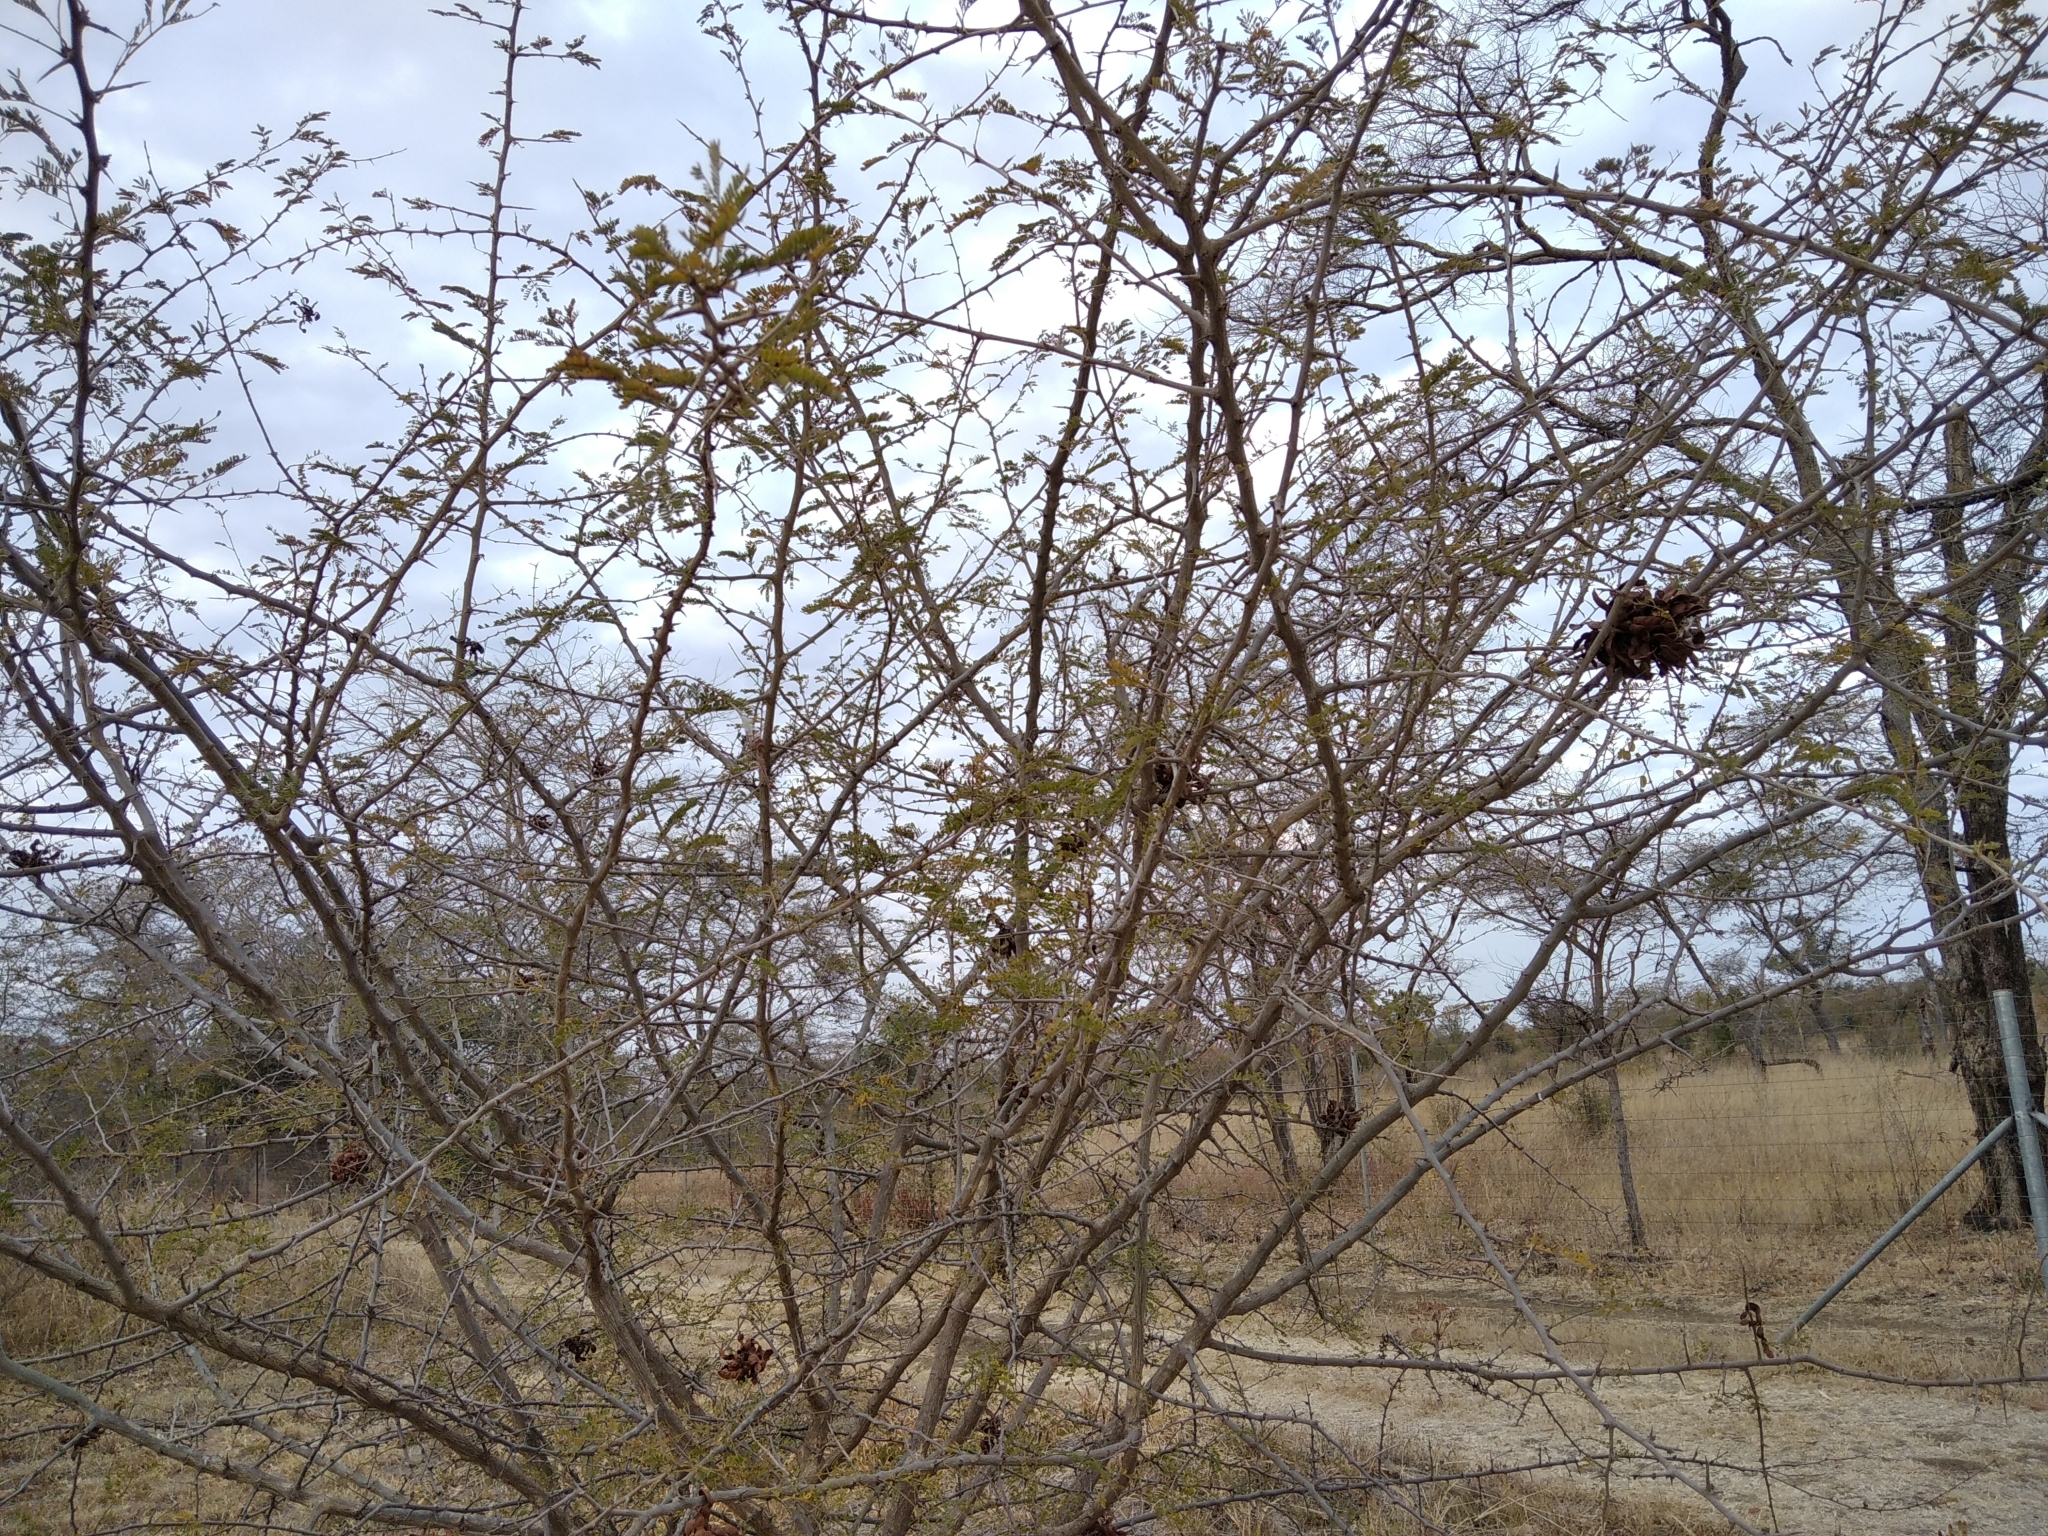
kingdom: Plantae
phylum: Tracheophyta
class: Magnoliopsida
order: Fabales
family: Fabaceae
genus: Dichrostachys
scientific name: Dichrostachys cinerea
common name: Sicklebush
